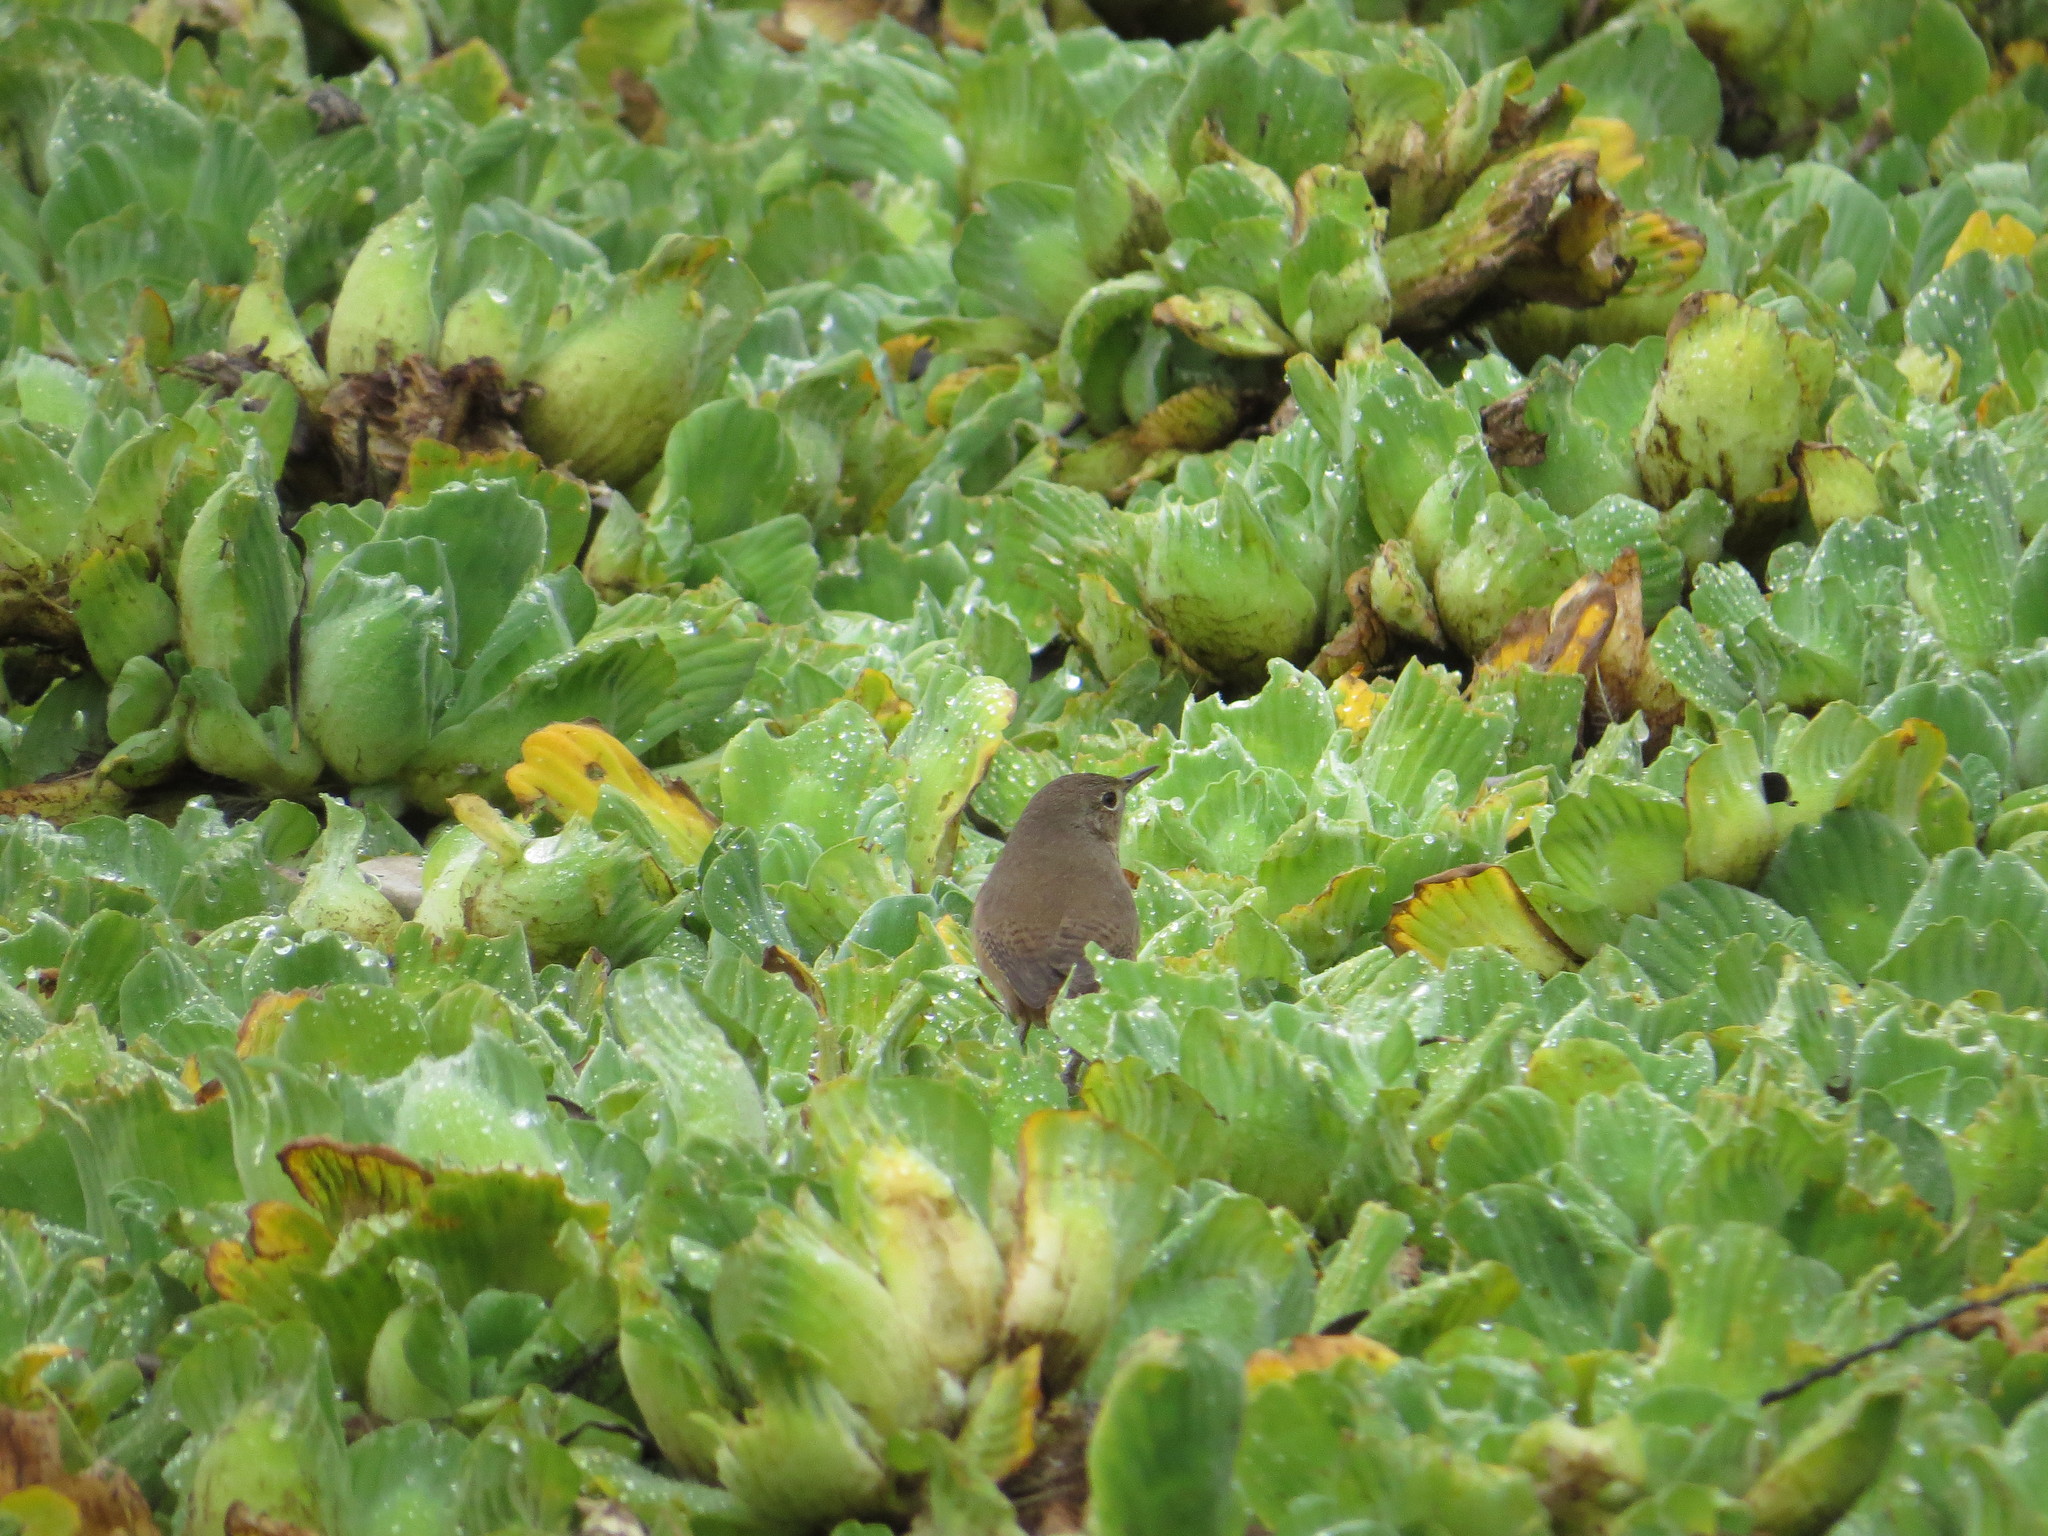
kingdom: Animalia
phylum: Chordata
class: Aves
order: Passeriformes
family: Troglodytidae
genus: Troglodytes
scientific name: Troglodytes aedon
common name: House wren
